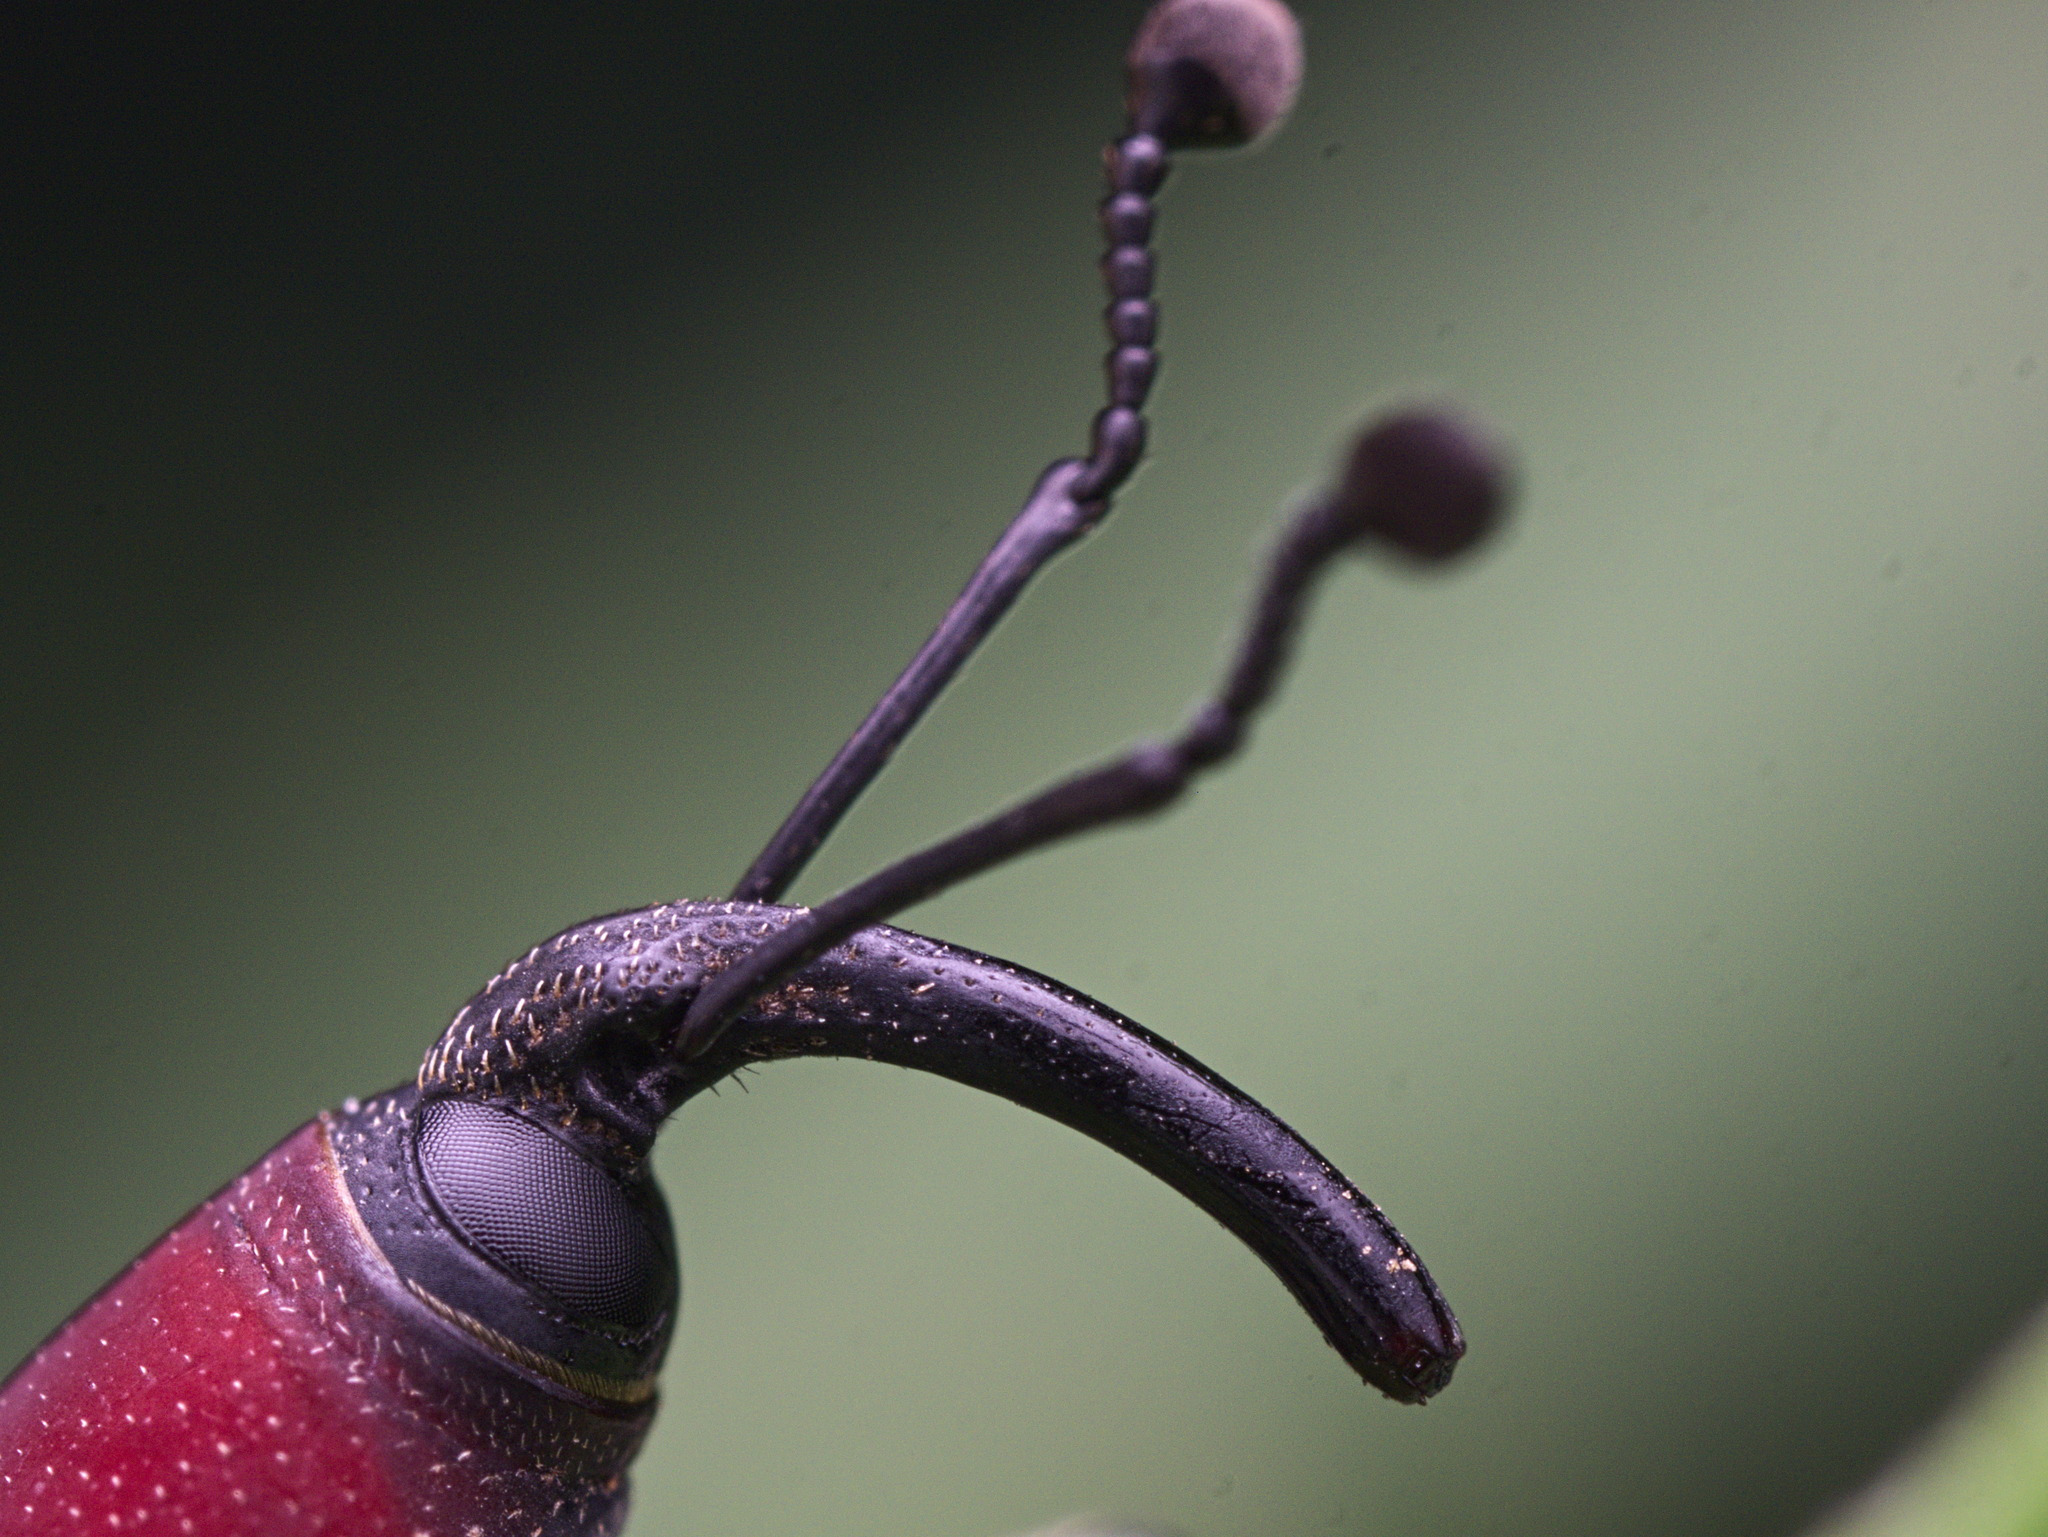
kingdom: Animalia
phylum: Arthropoda
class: Insecta
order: Coleoptera
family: Dryophthoridae
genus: Rhodobaenus
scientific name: Rhodobaenus sanguineus
